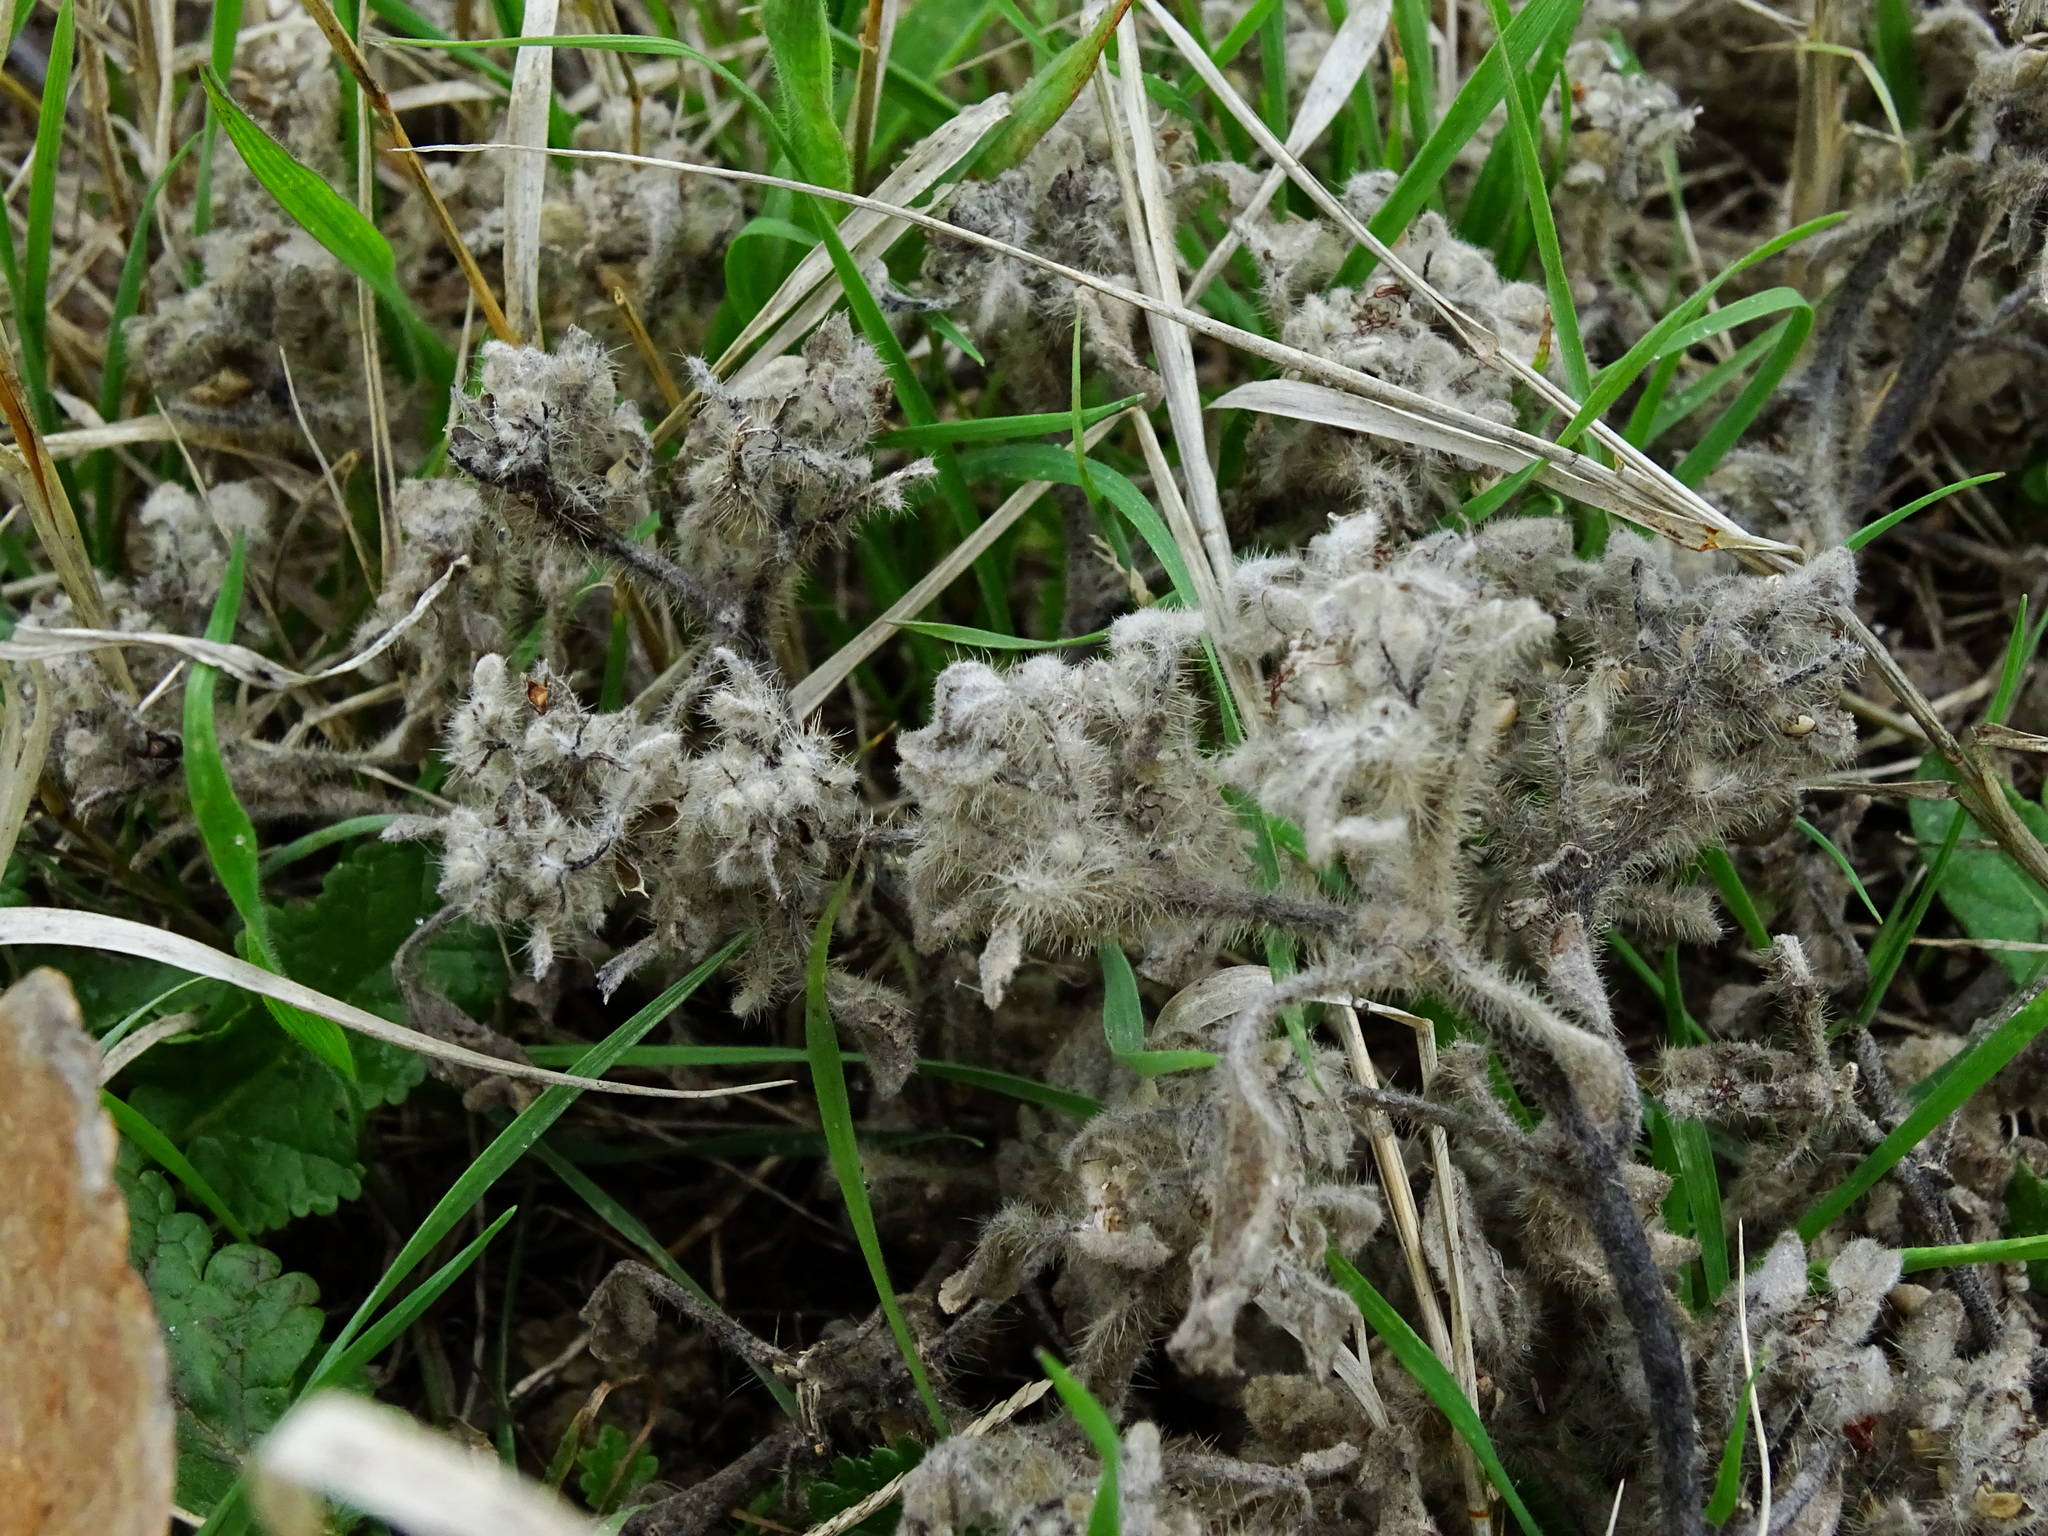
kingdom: Plantae
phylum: Tracheophyta
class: Magnoliopsida
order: Malpighiales
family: Euphorbiaceae
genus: Croton
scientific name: Croton setiger
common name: Dove weed
